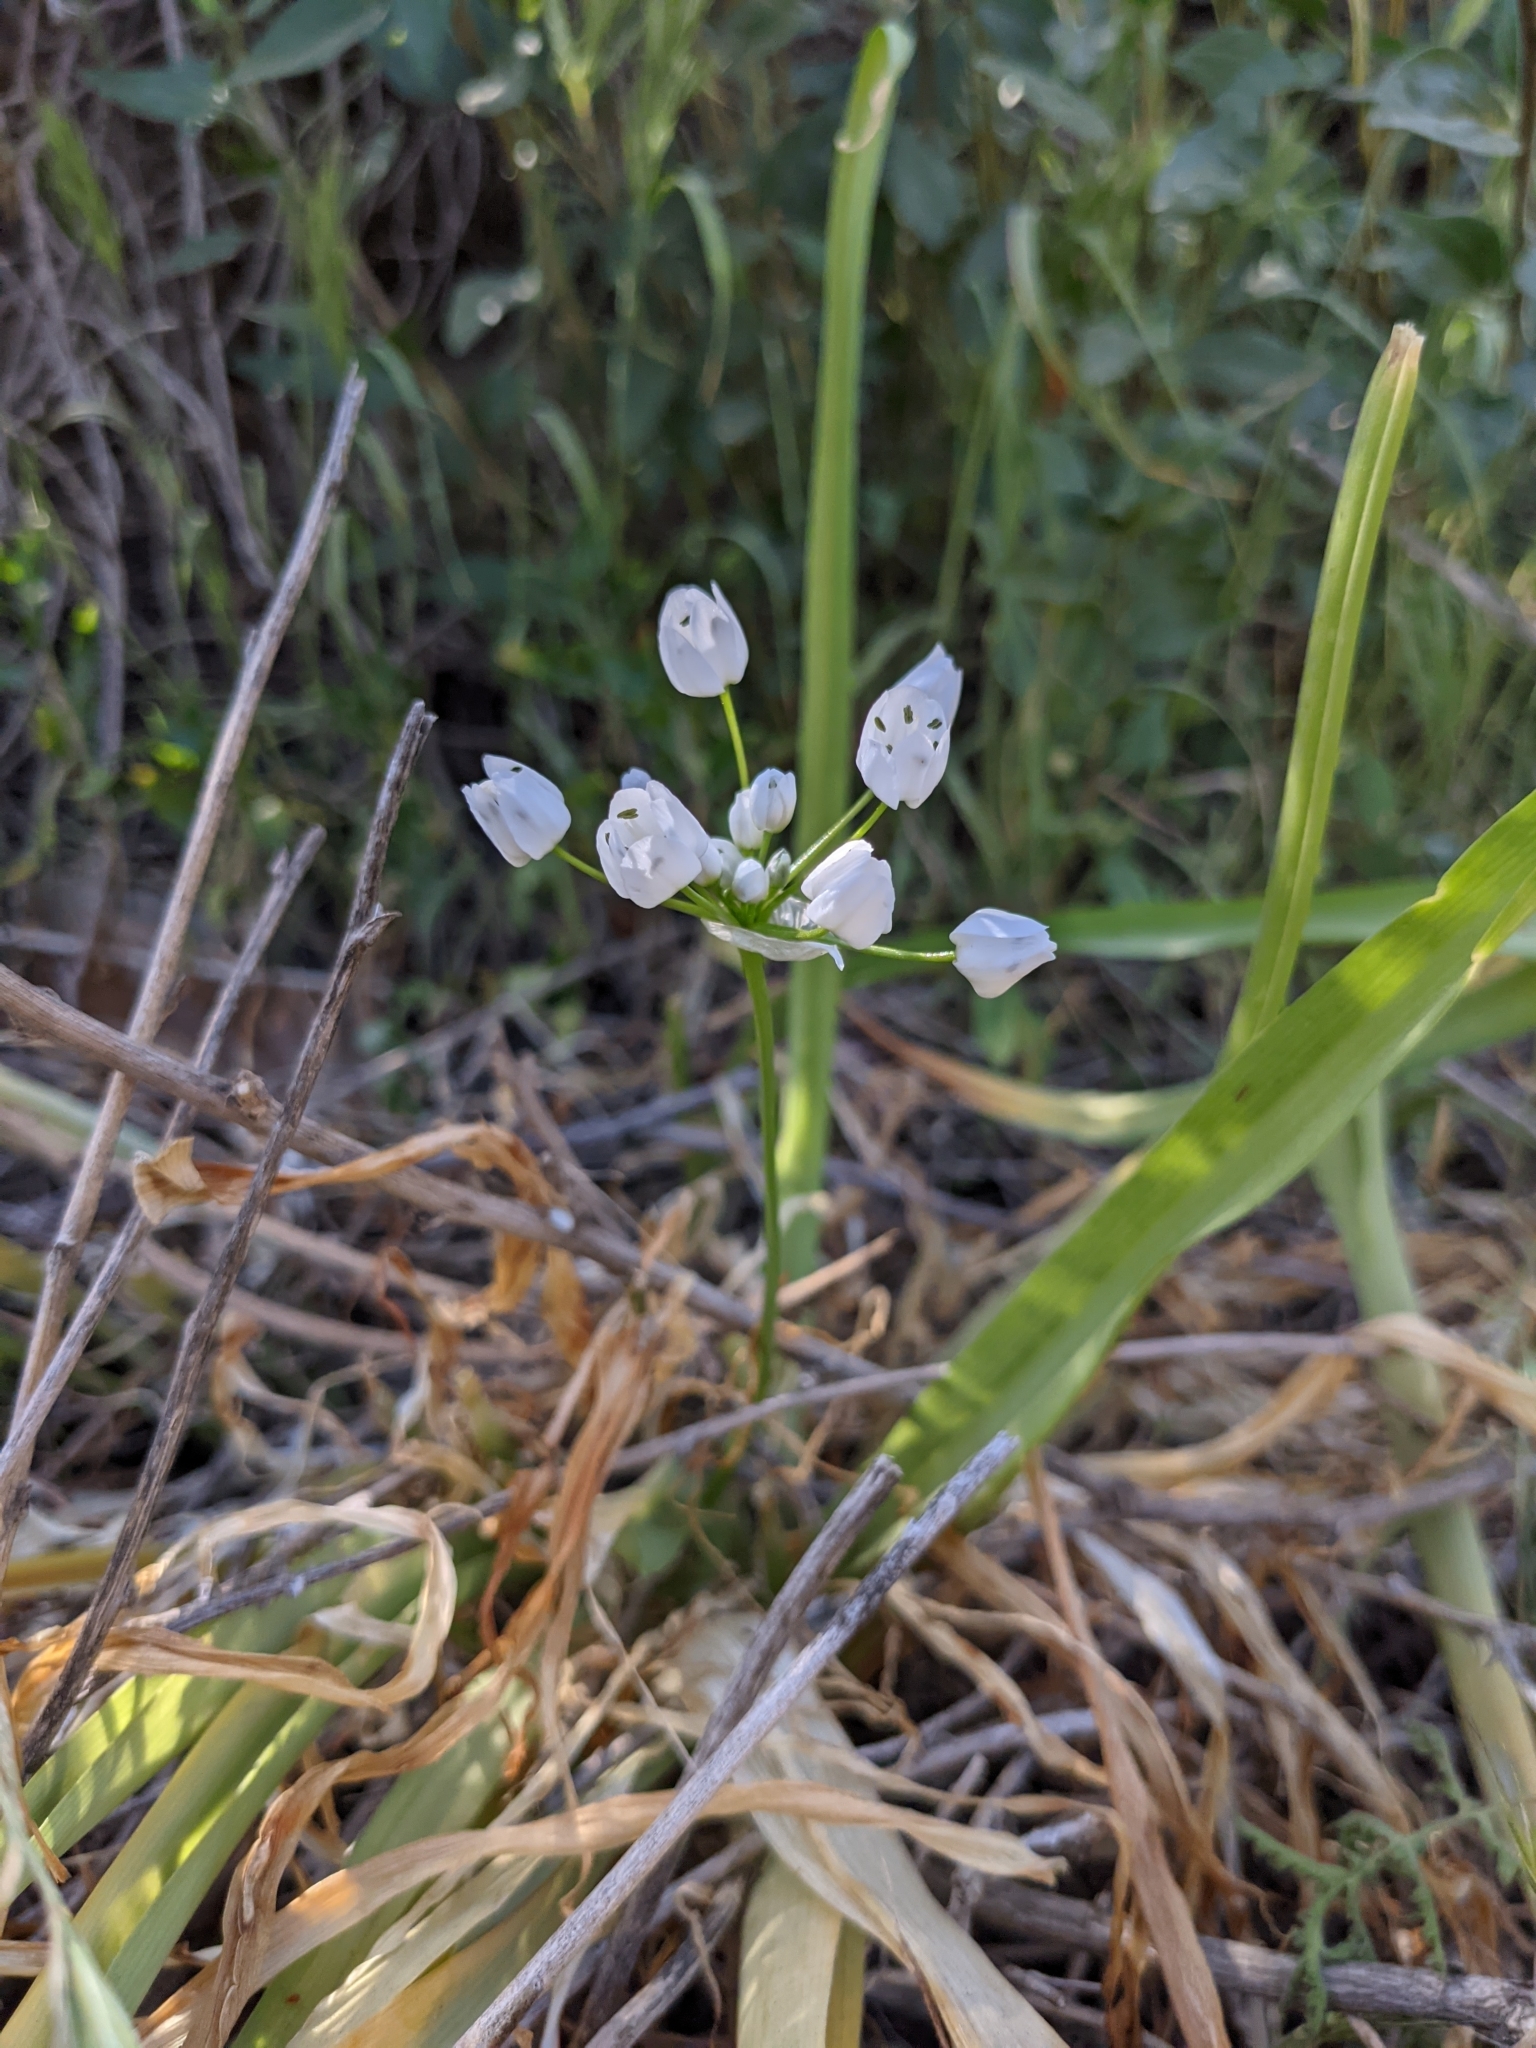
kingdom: Plantae
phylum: Tracheophyta
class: Liliopsida
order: Asparagales
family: Amaryllidaceae
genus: Allium
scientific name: Allium neapolitanum
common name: Neapolitan garlic
